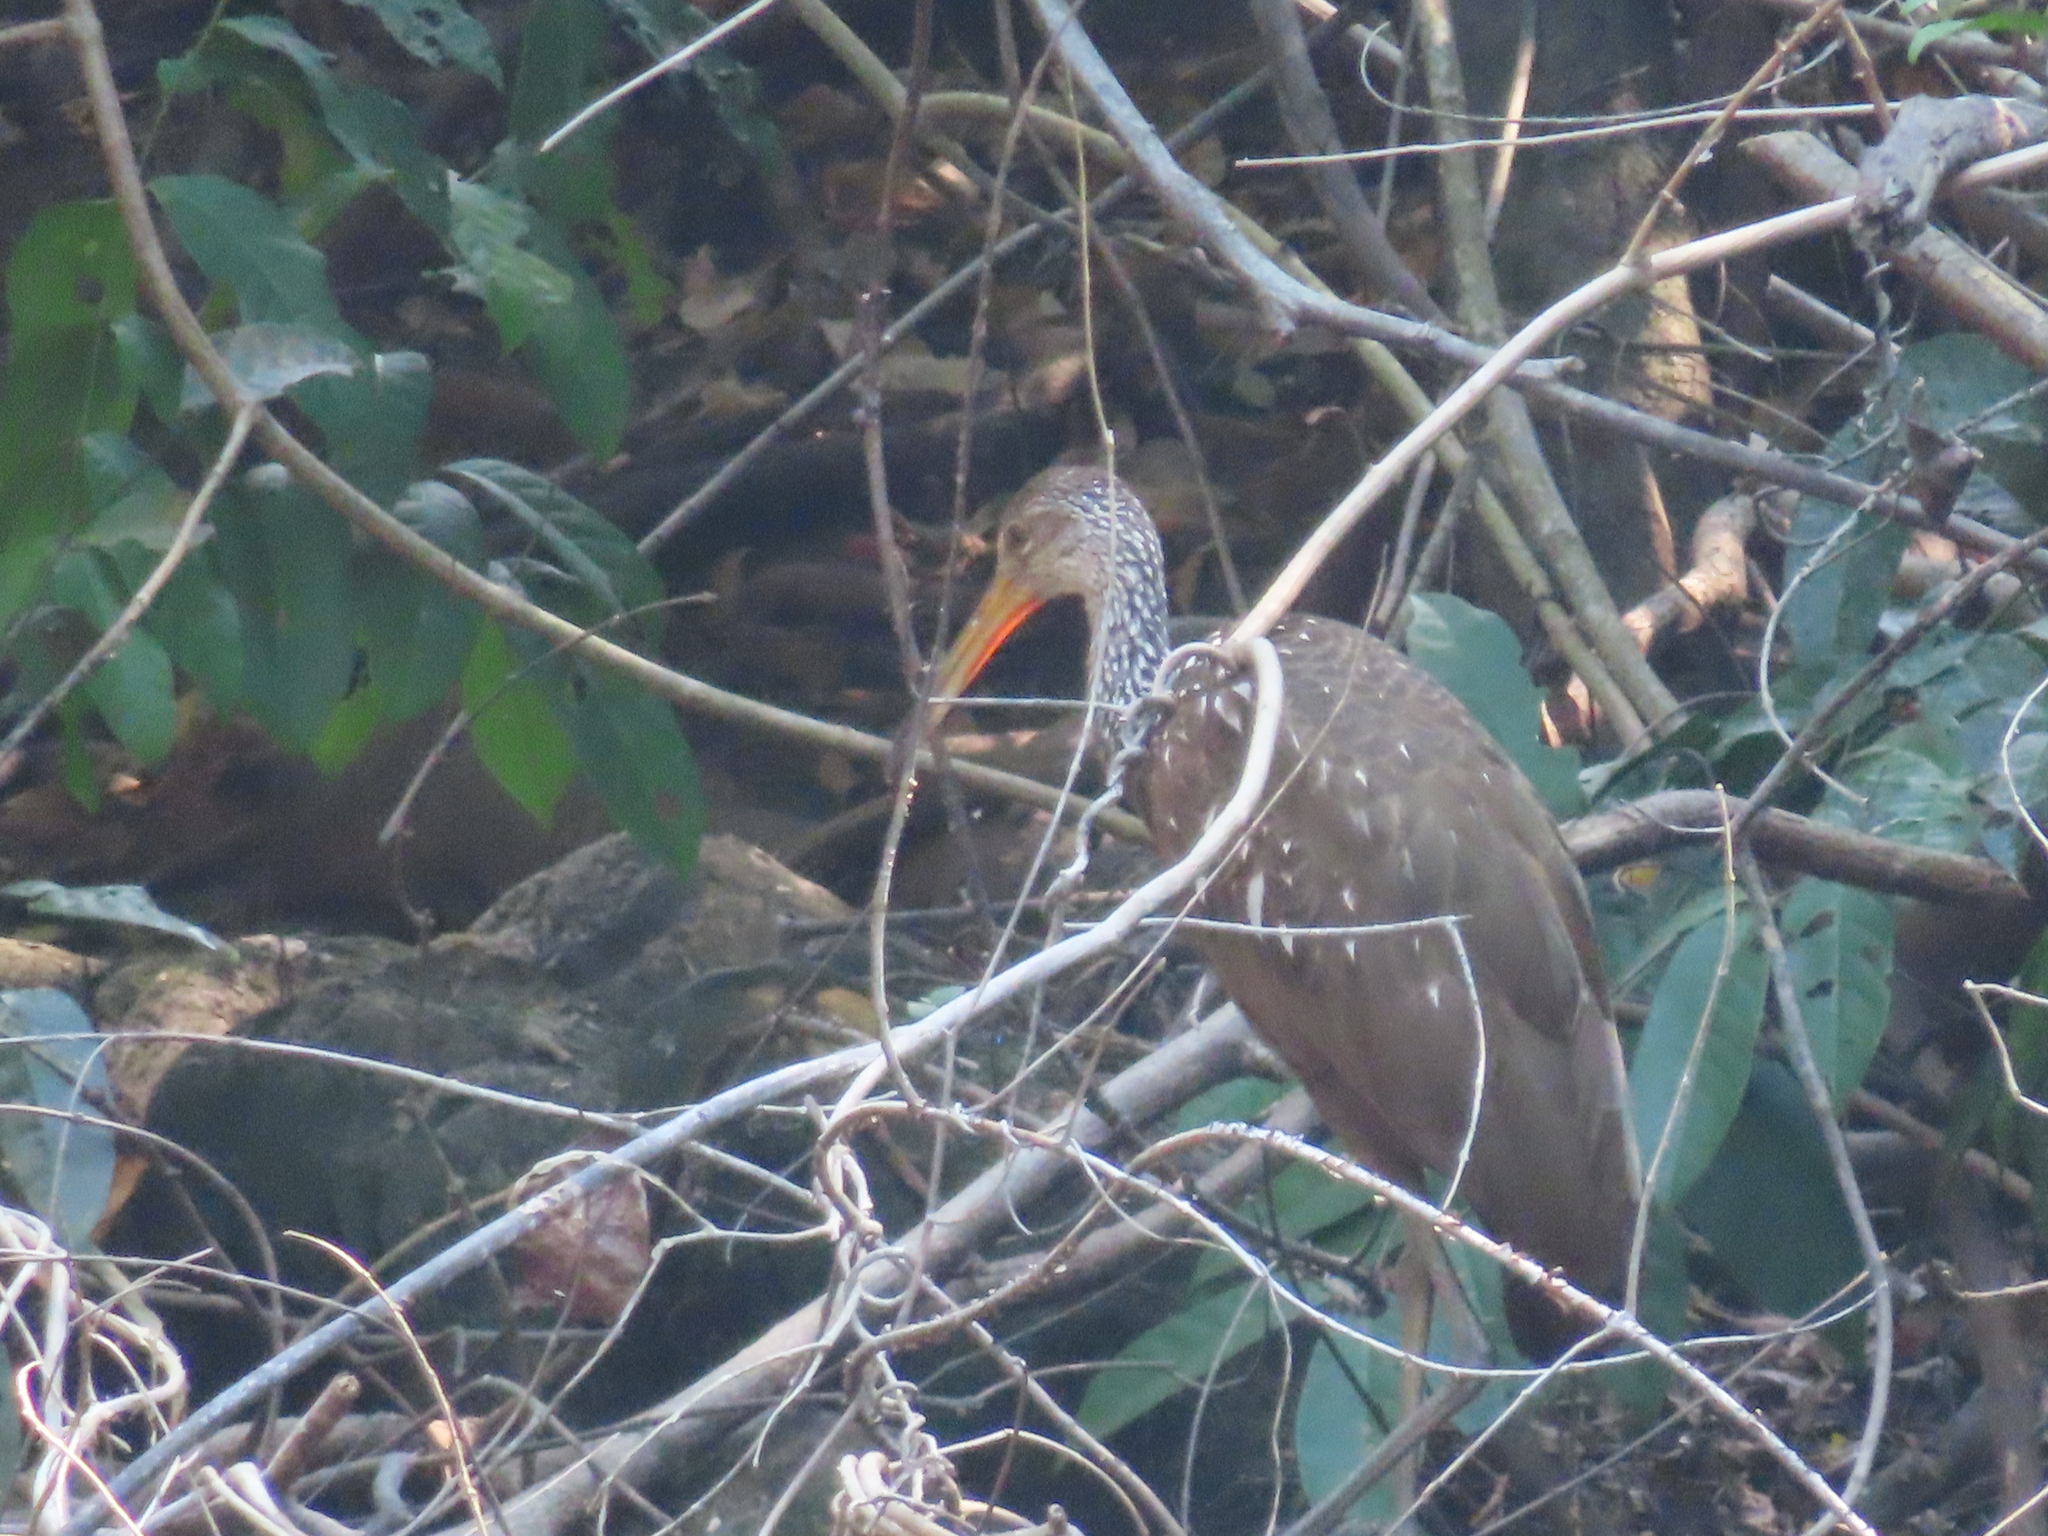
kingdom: Animalia
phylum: Chordata
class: Aves
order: Gruiformes
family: Aramidae
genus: Aramus
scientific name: Aramus guarauna
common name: Limpkin
